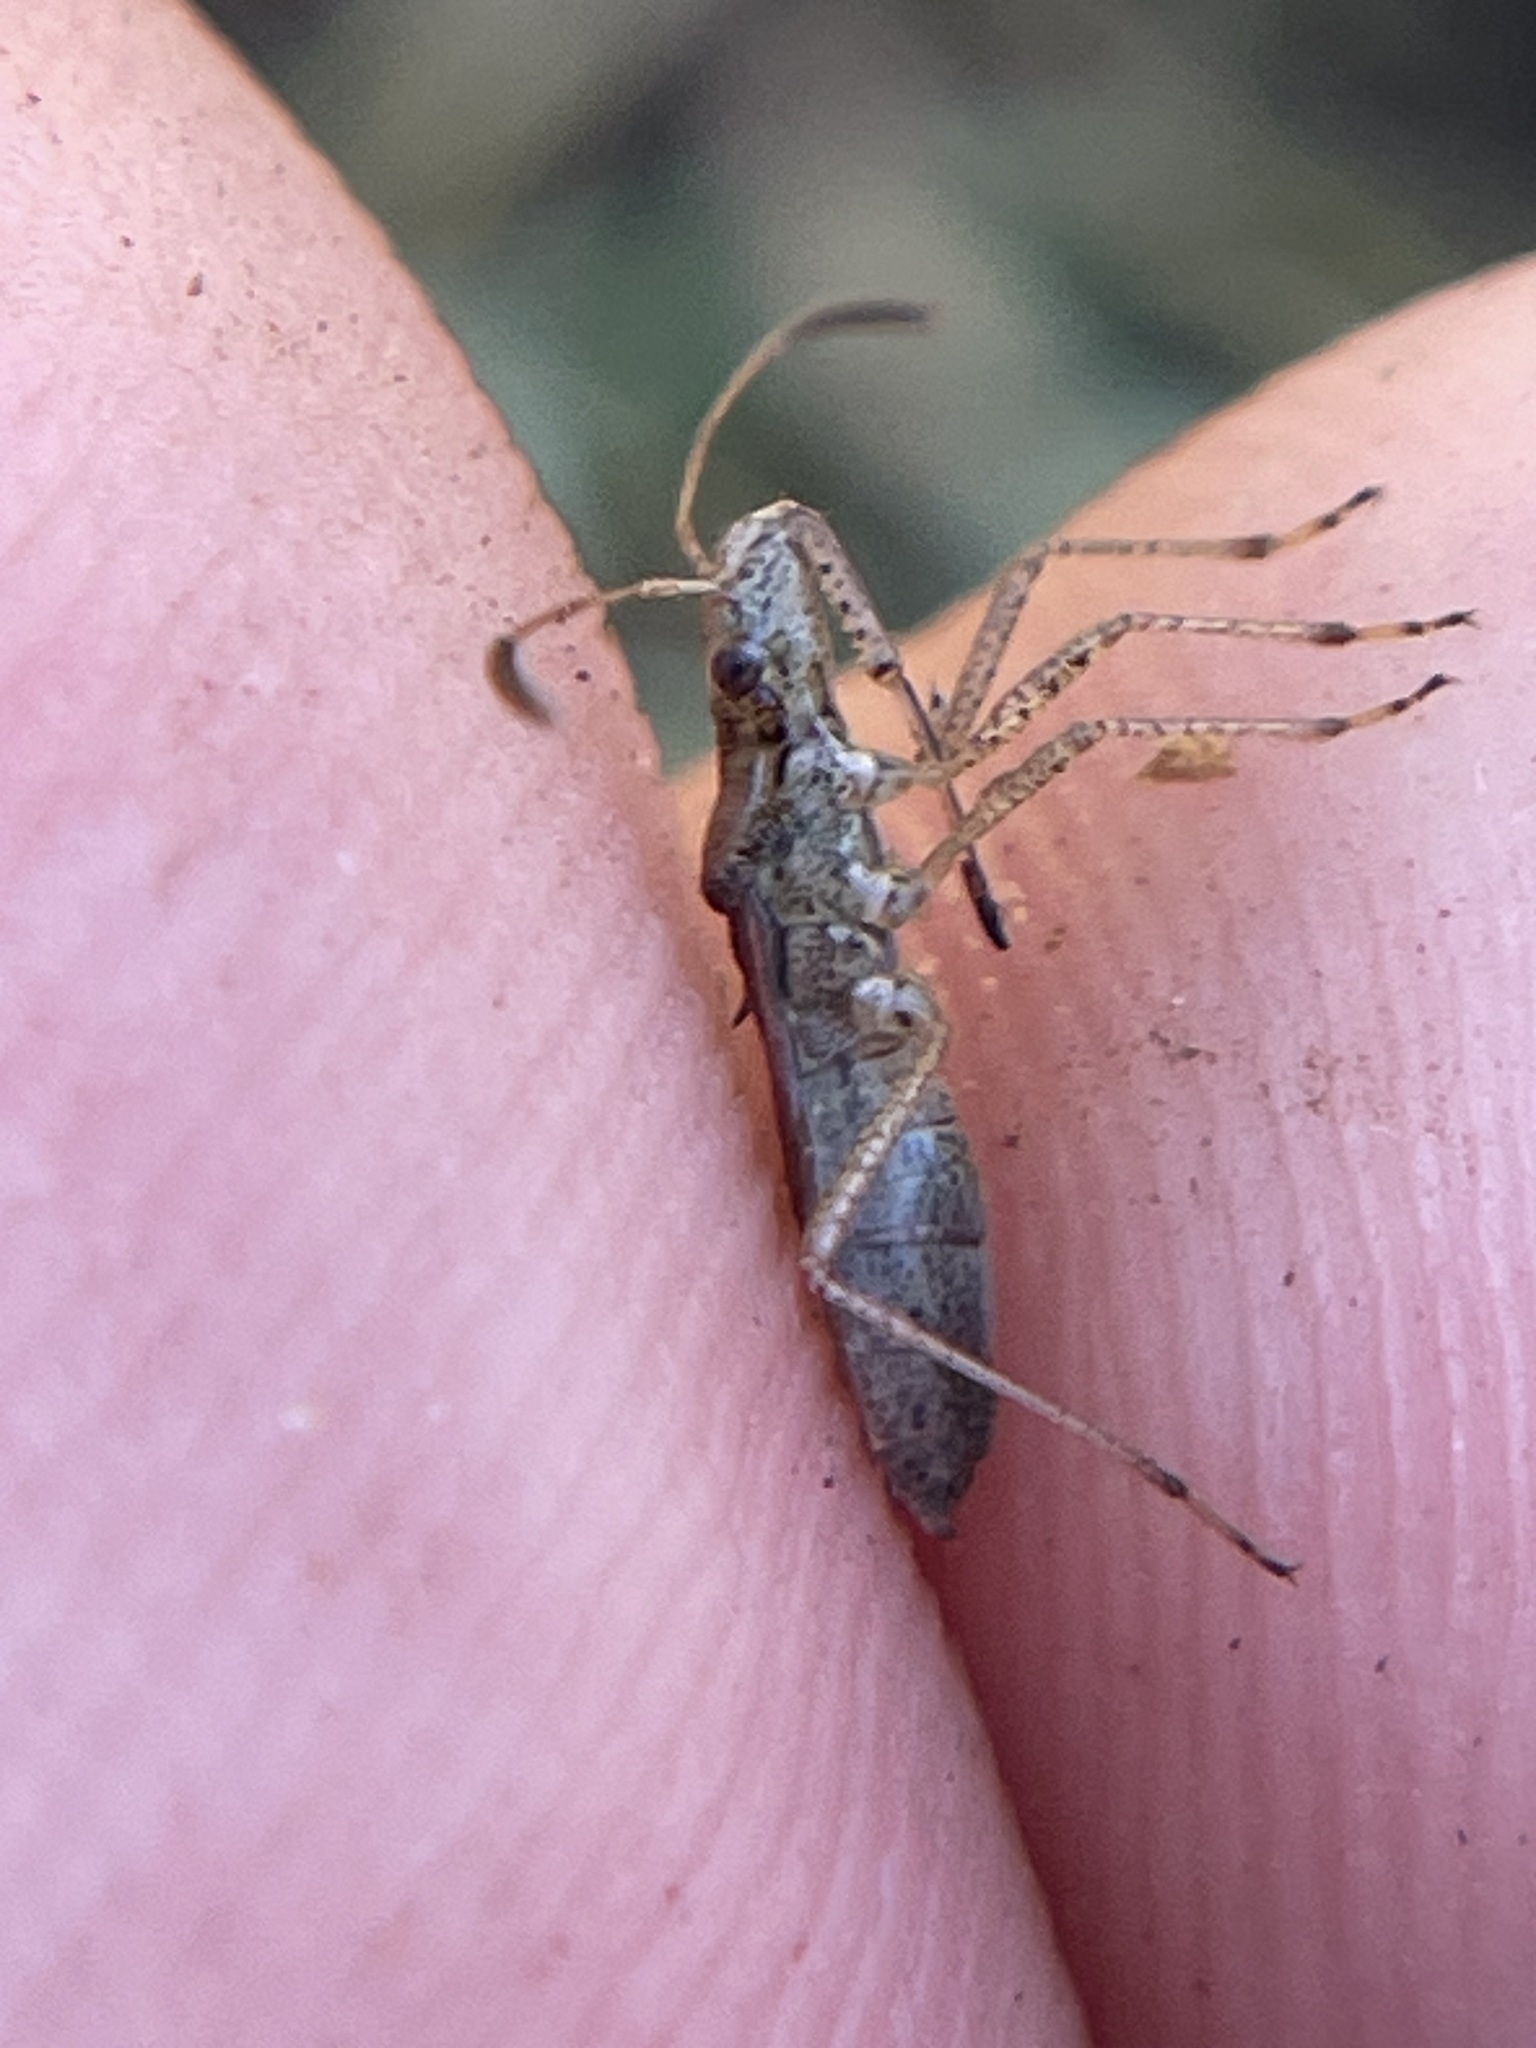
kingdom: Animalia
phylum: Arthropoda
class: Insecta
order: Hemiptera
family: Alydidae
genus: Esperanza
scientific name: Esperanza texana
